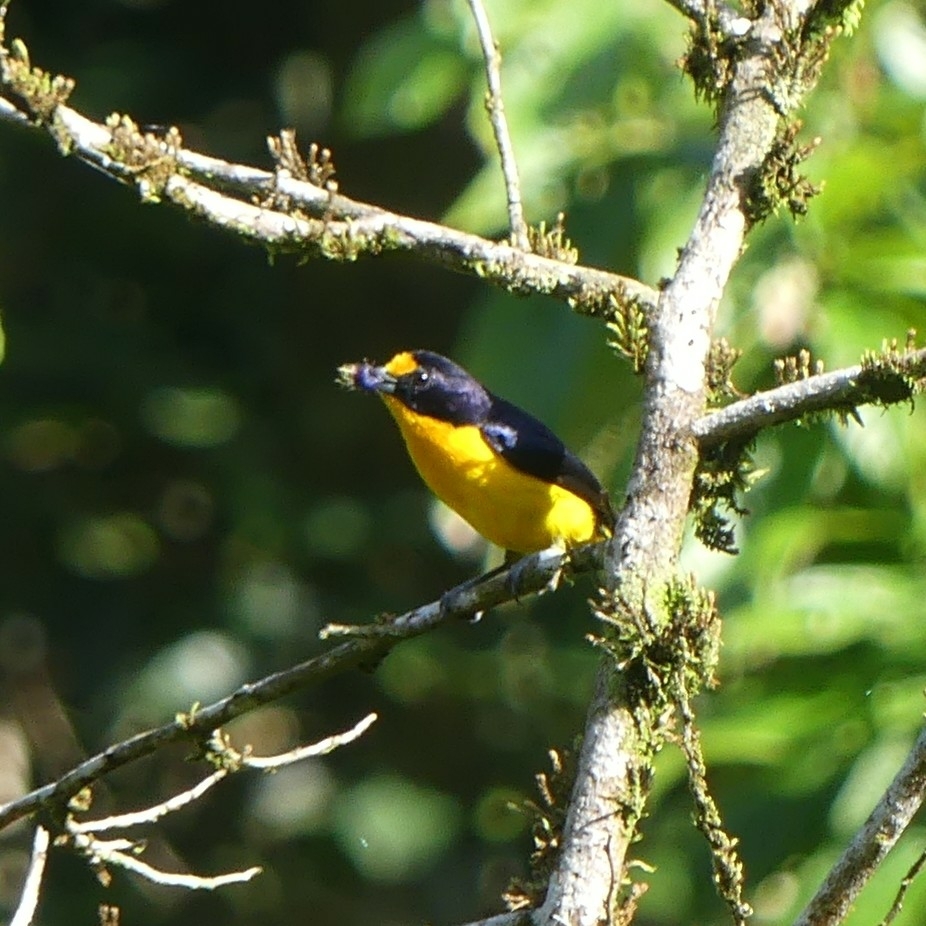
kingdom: Animalia
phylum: Chordata
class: Aves
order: Passeriformes
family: Fringillidae
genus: Euphonia
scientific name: Euphonia violacea
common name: Violaceous euphonia
